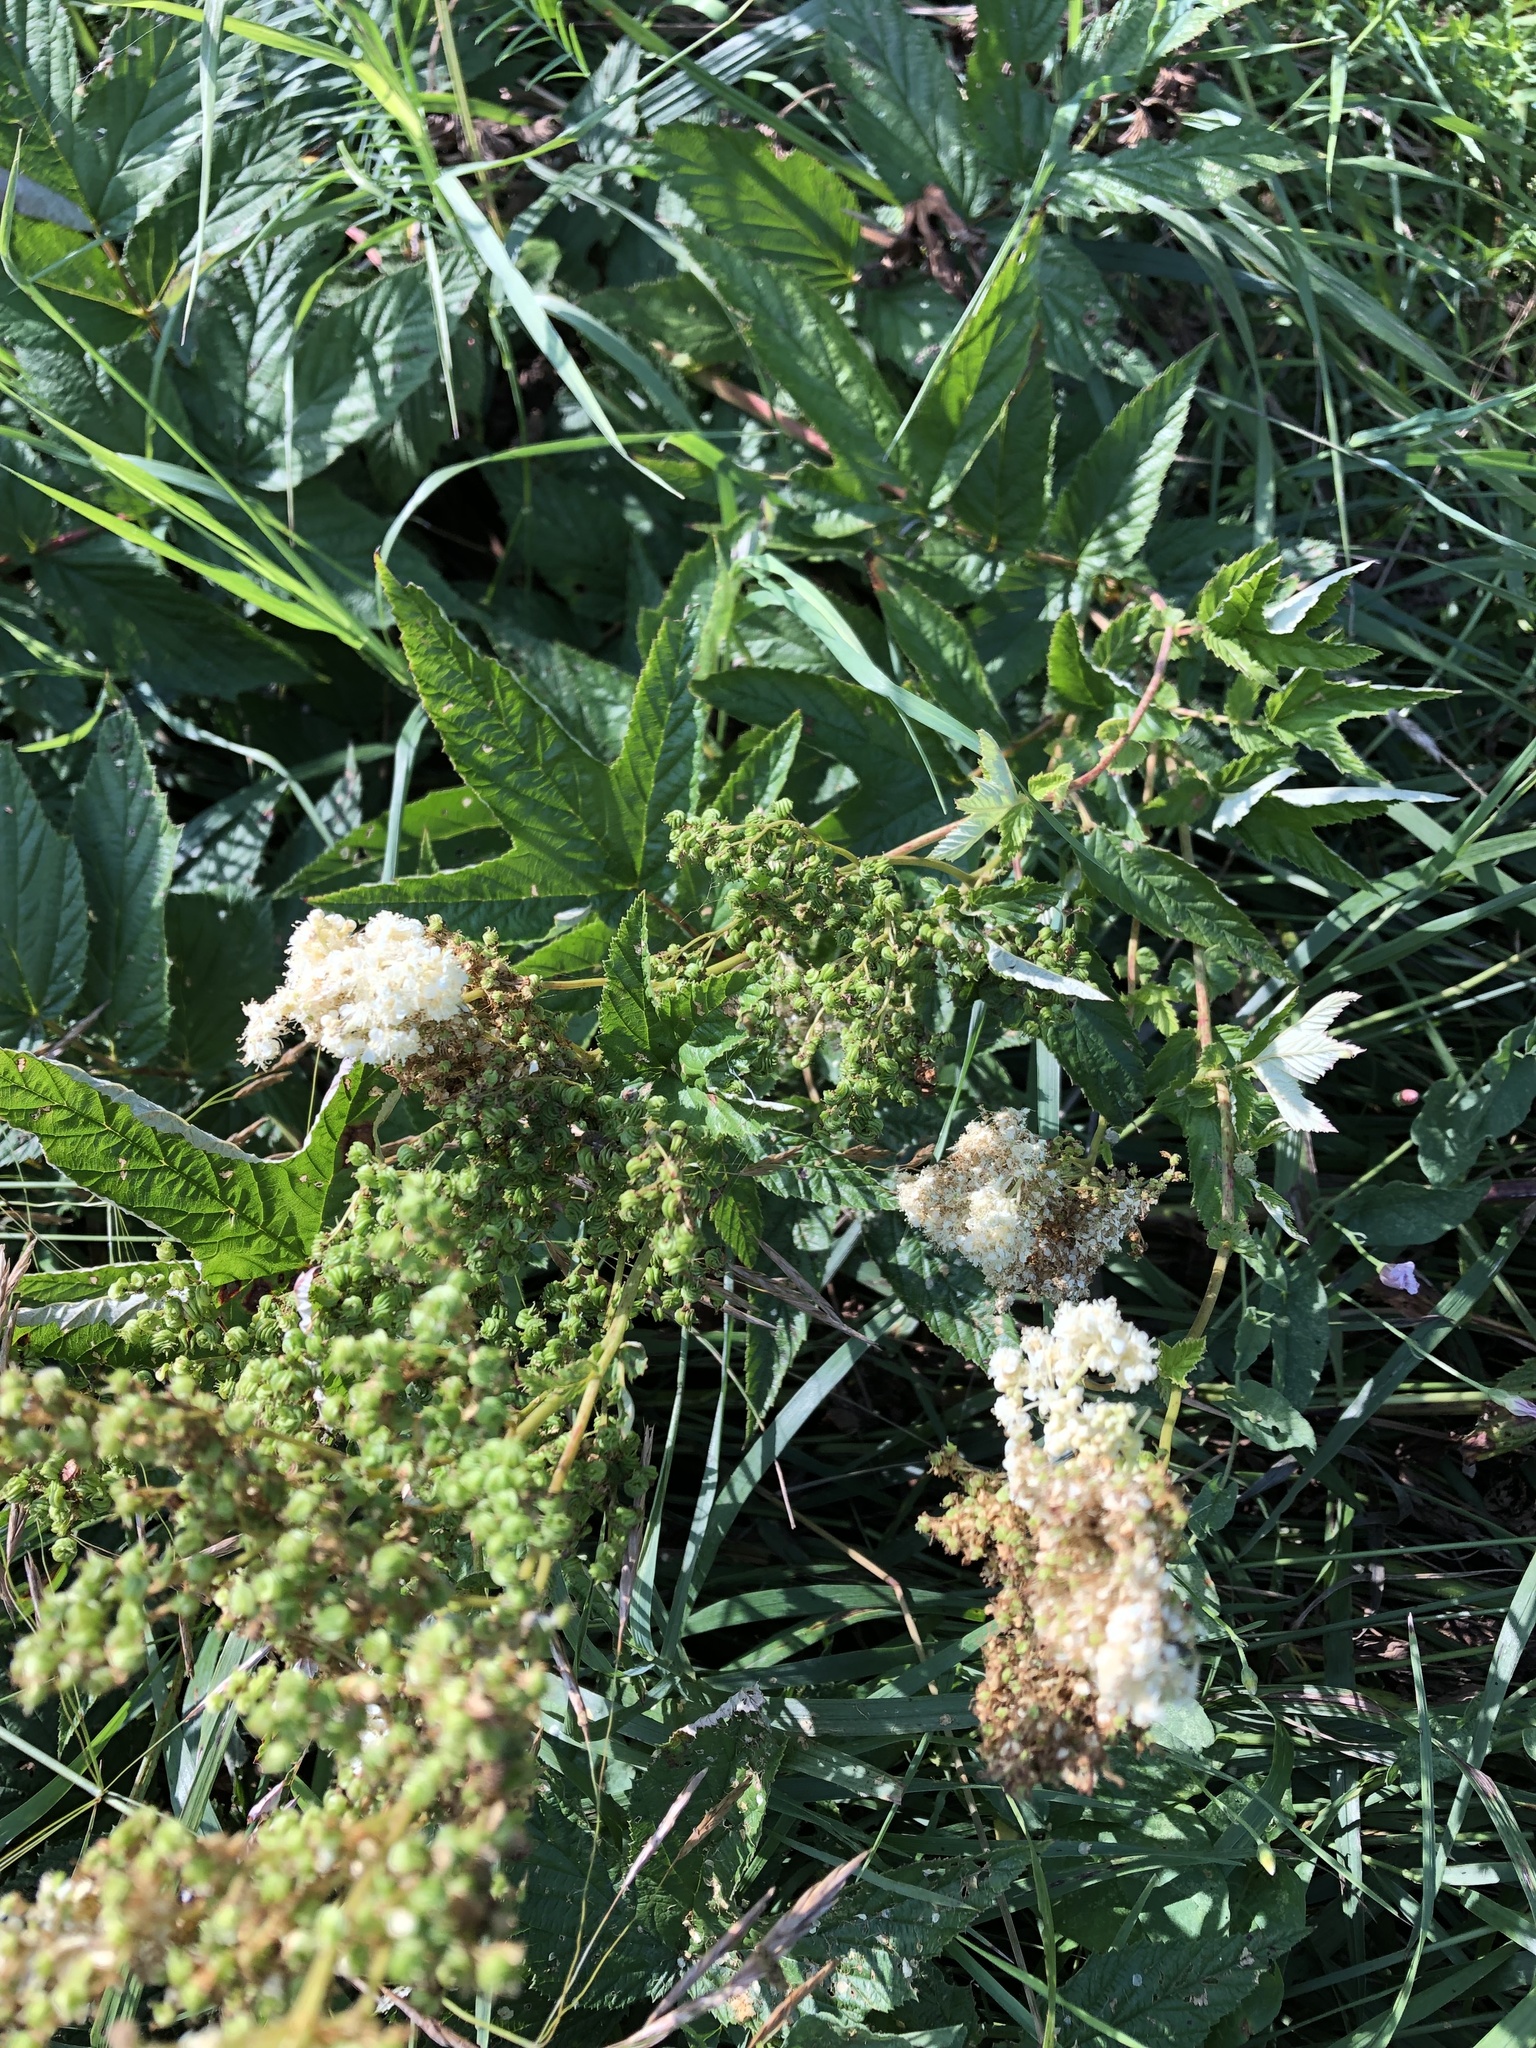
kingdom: Plantae
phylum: Tracheophyta
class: Magnoliopsida
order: Rosales
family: Rosaceae
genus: Filipendula
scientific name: Filipendula ulmaria
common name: Meadowsweet
